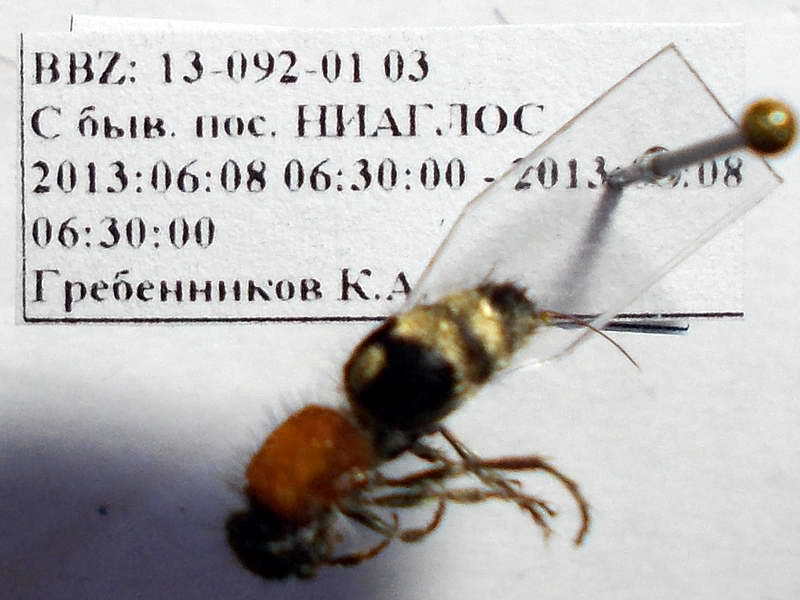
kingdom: Animalia
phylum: Arthropoda
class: Insecta
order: Hymenoptera
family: Mutillidae
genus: Nemka
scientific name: Nemka viduata
